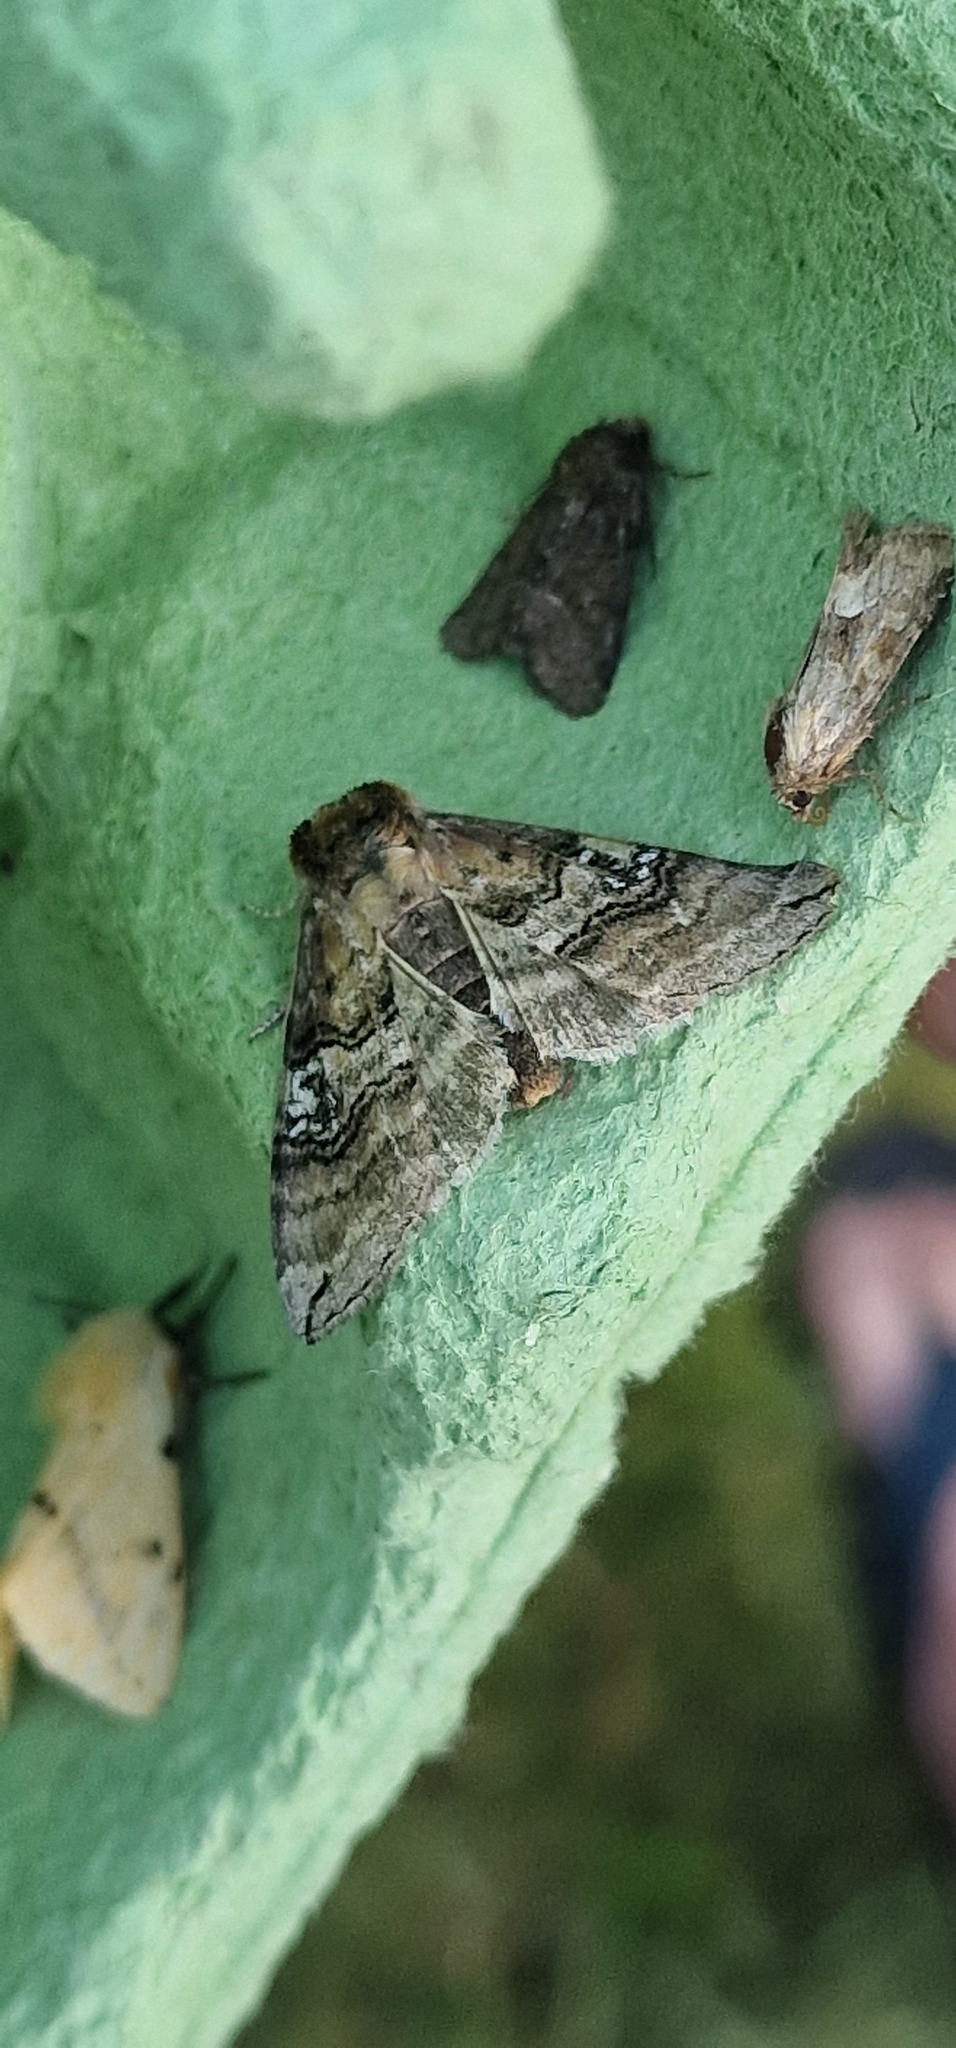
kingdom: Animalia
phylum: Arthropoda
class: Insecta
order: Lepidoptera
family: Drepanidae
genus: Tethea
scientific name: Tethea ocularis
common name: Figure of eighty
